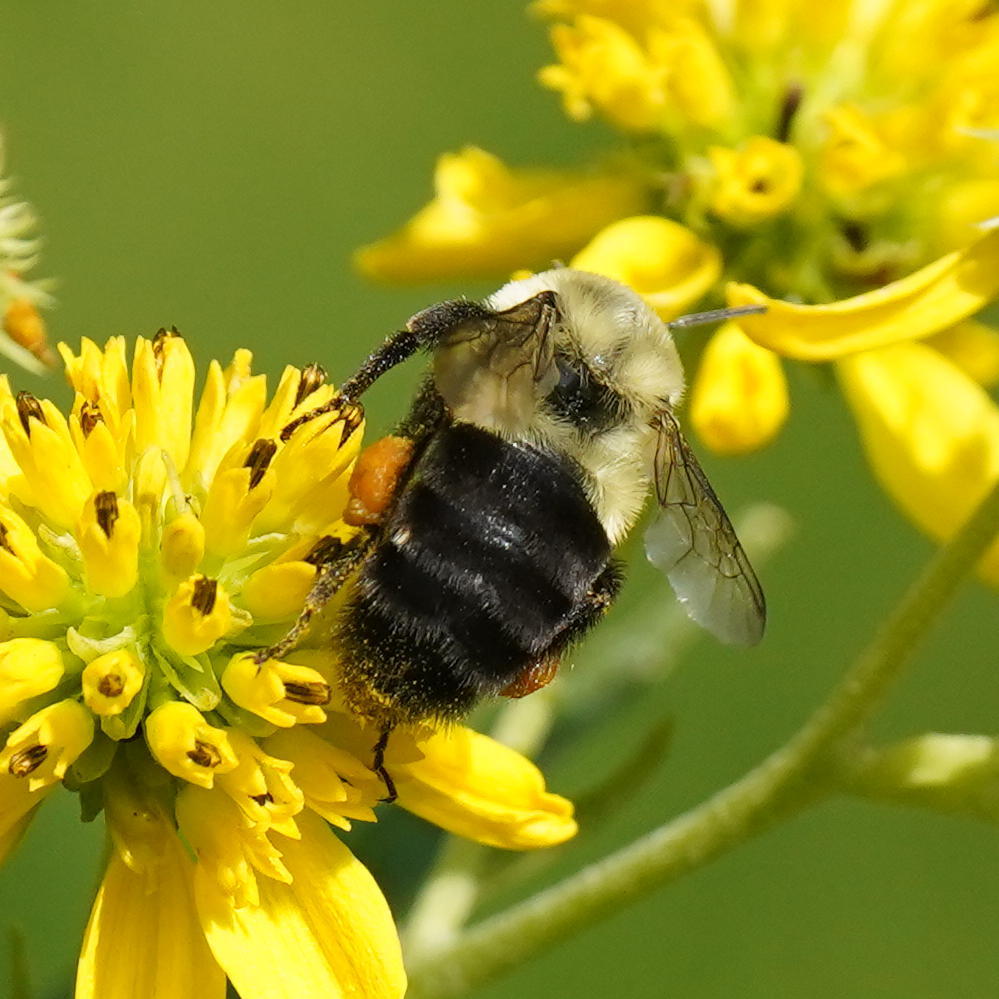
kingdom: Animalia
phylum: Arthropoda
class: Insecta
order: Hymenoptera
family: Apidae
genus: Bombus
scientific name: Bombus impatiens
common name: Common eastern bumble bee
